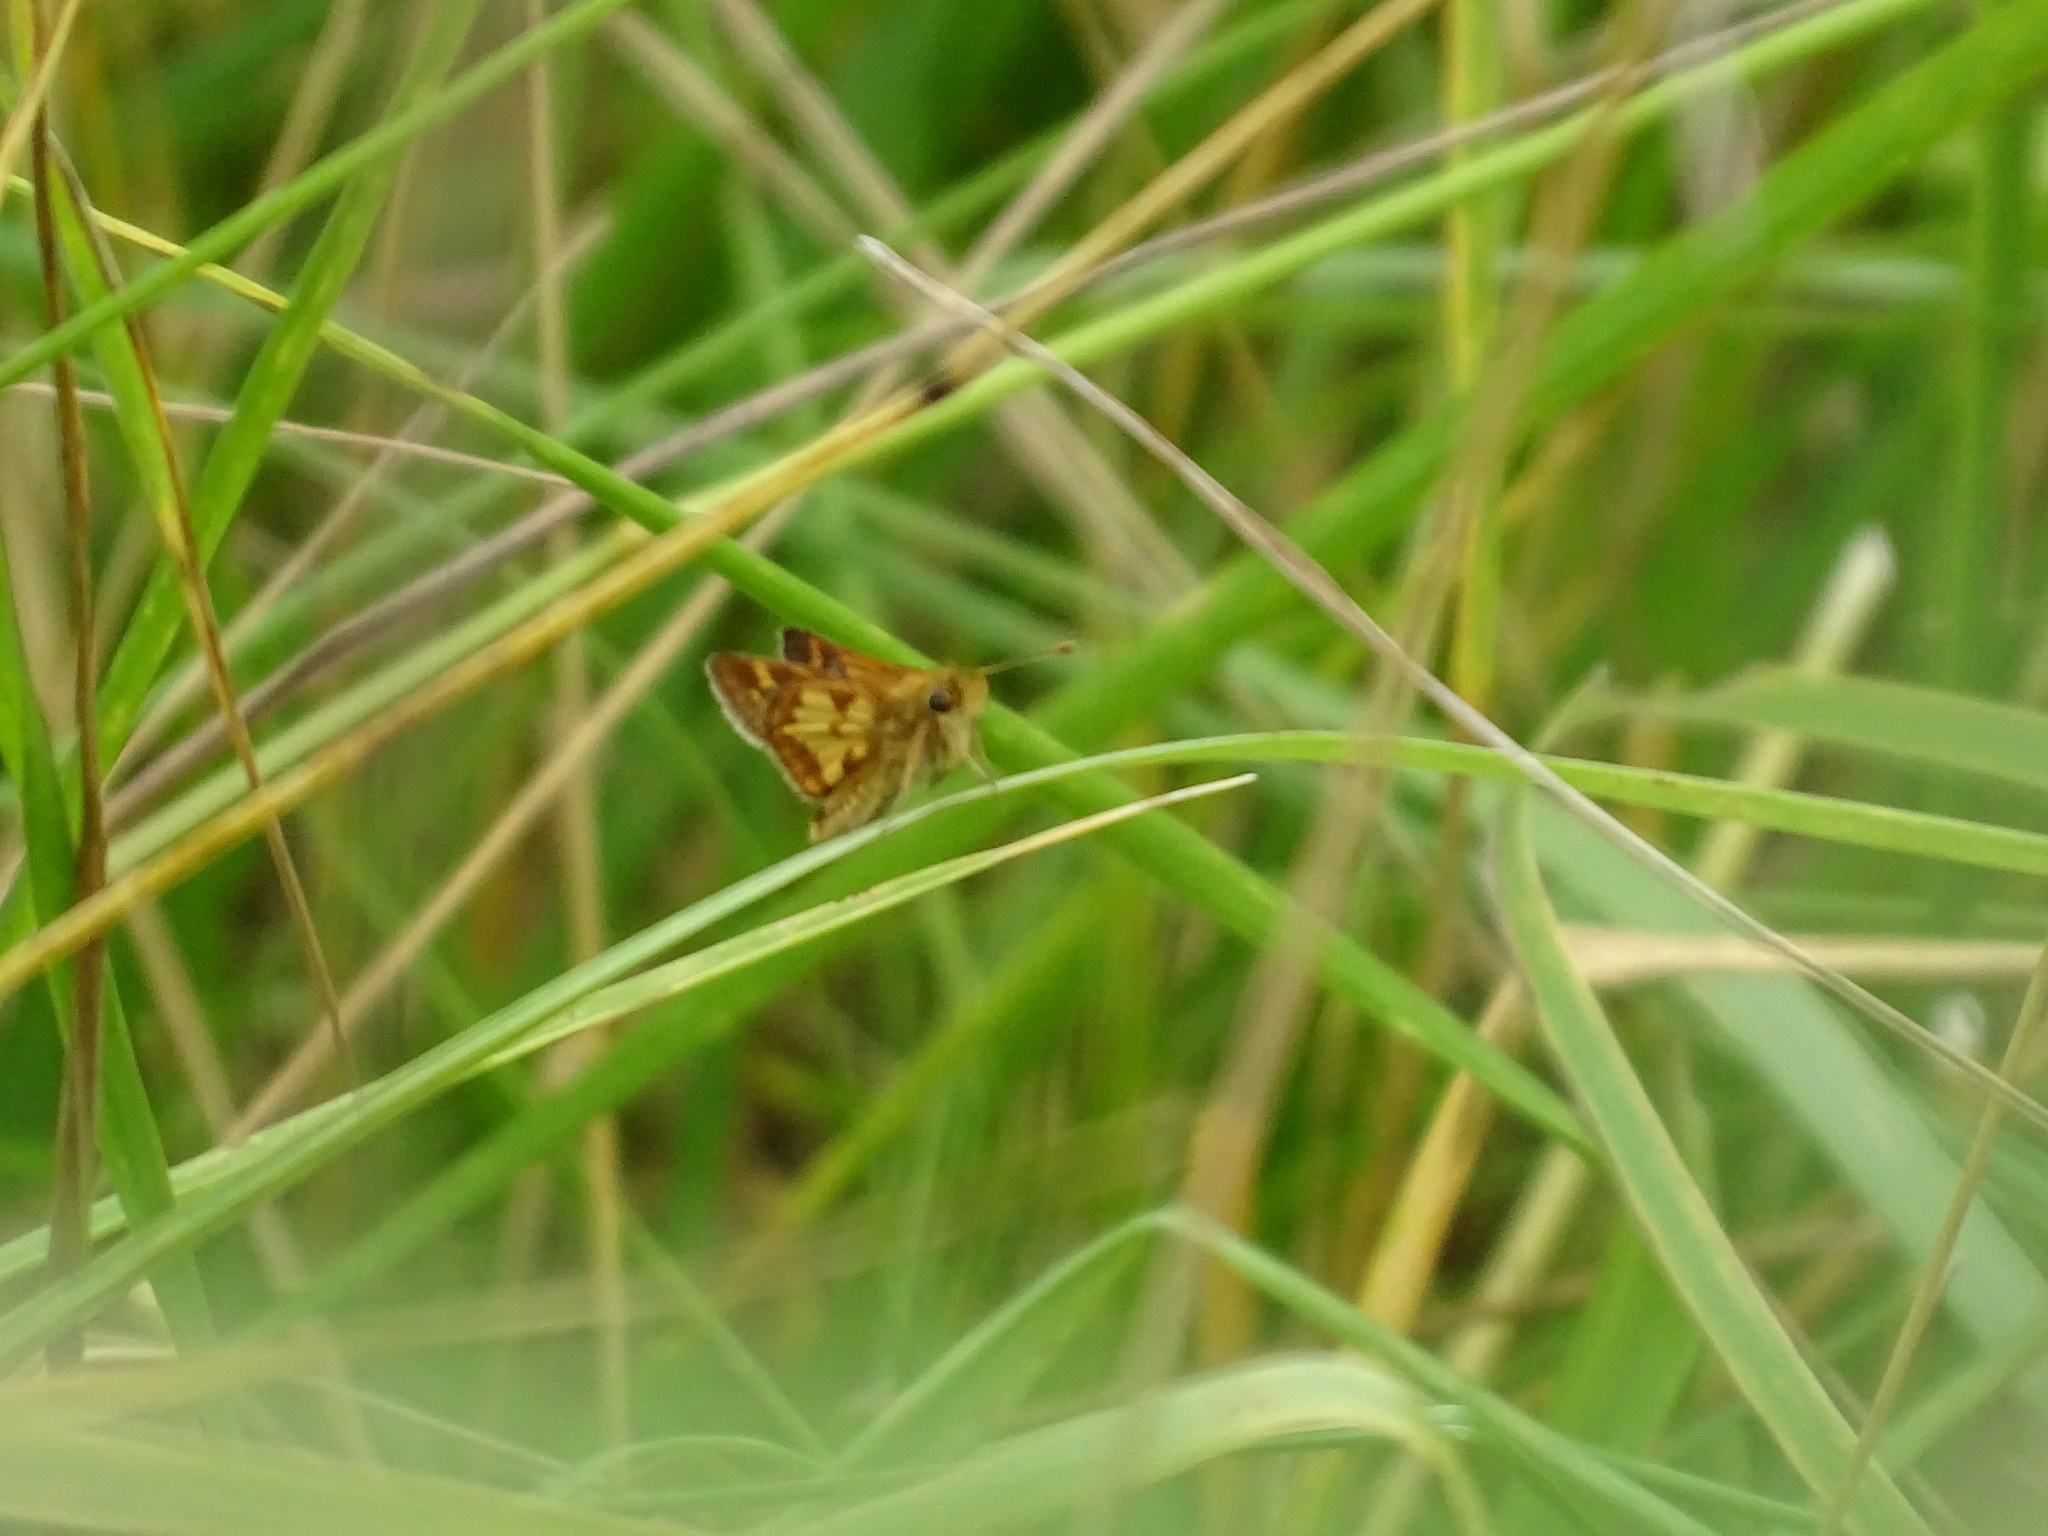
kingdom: Animalia
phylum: Arthropoda
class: Insecta
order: Lepidoptera
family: Hesperiidae
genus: Polites
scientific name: Polites coras
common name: Peck's skipper
